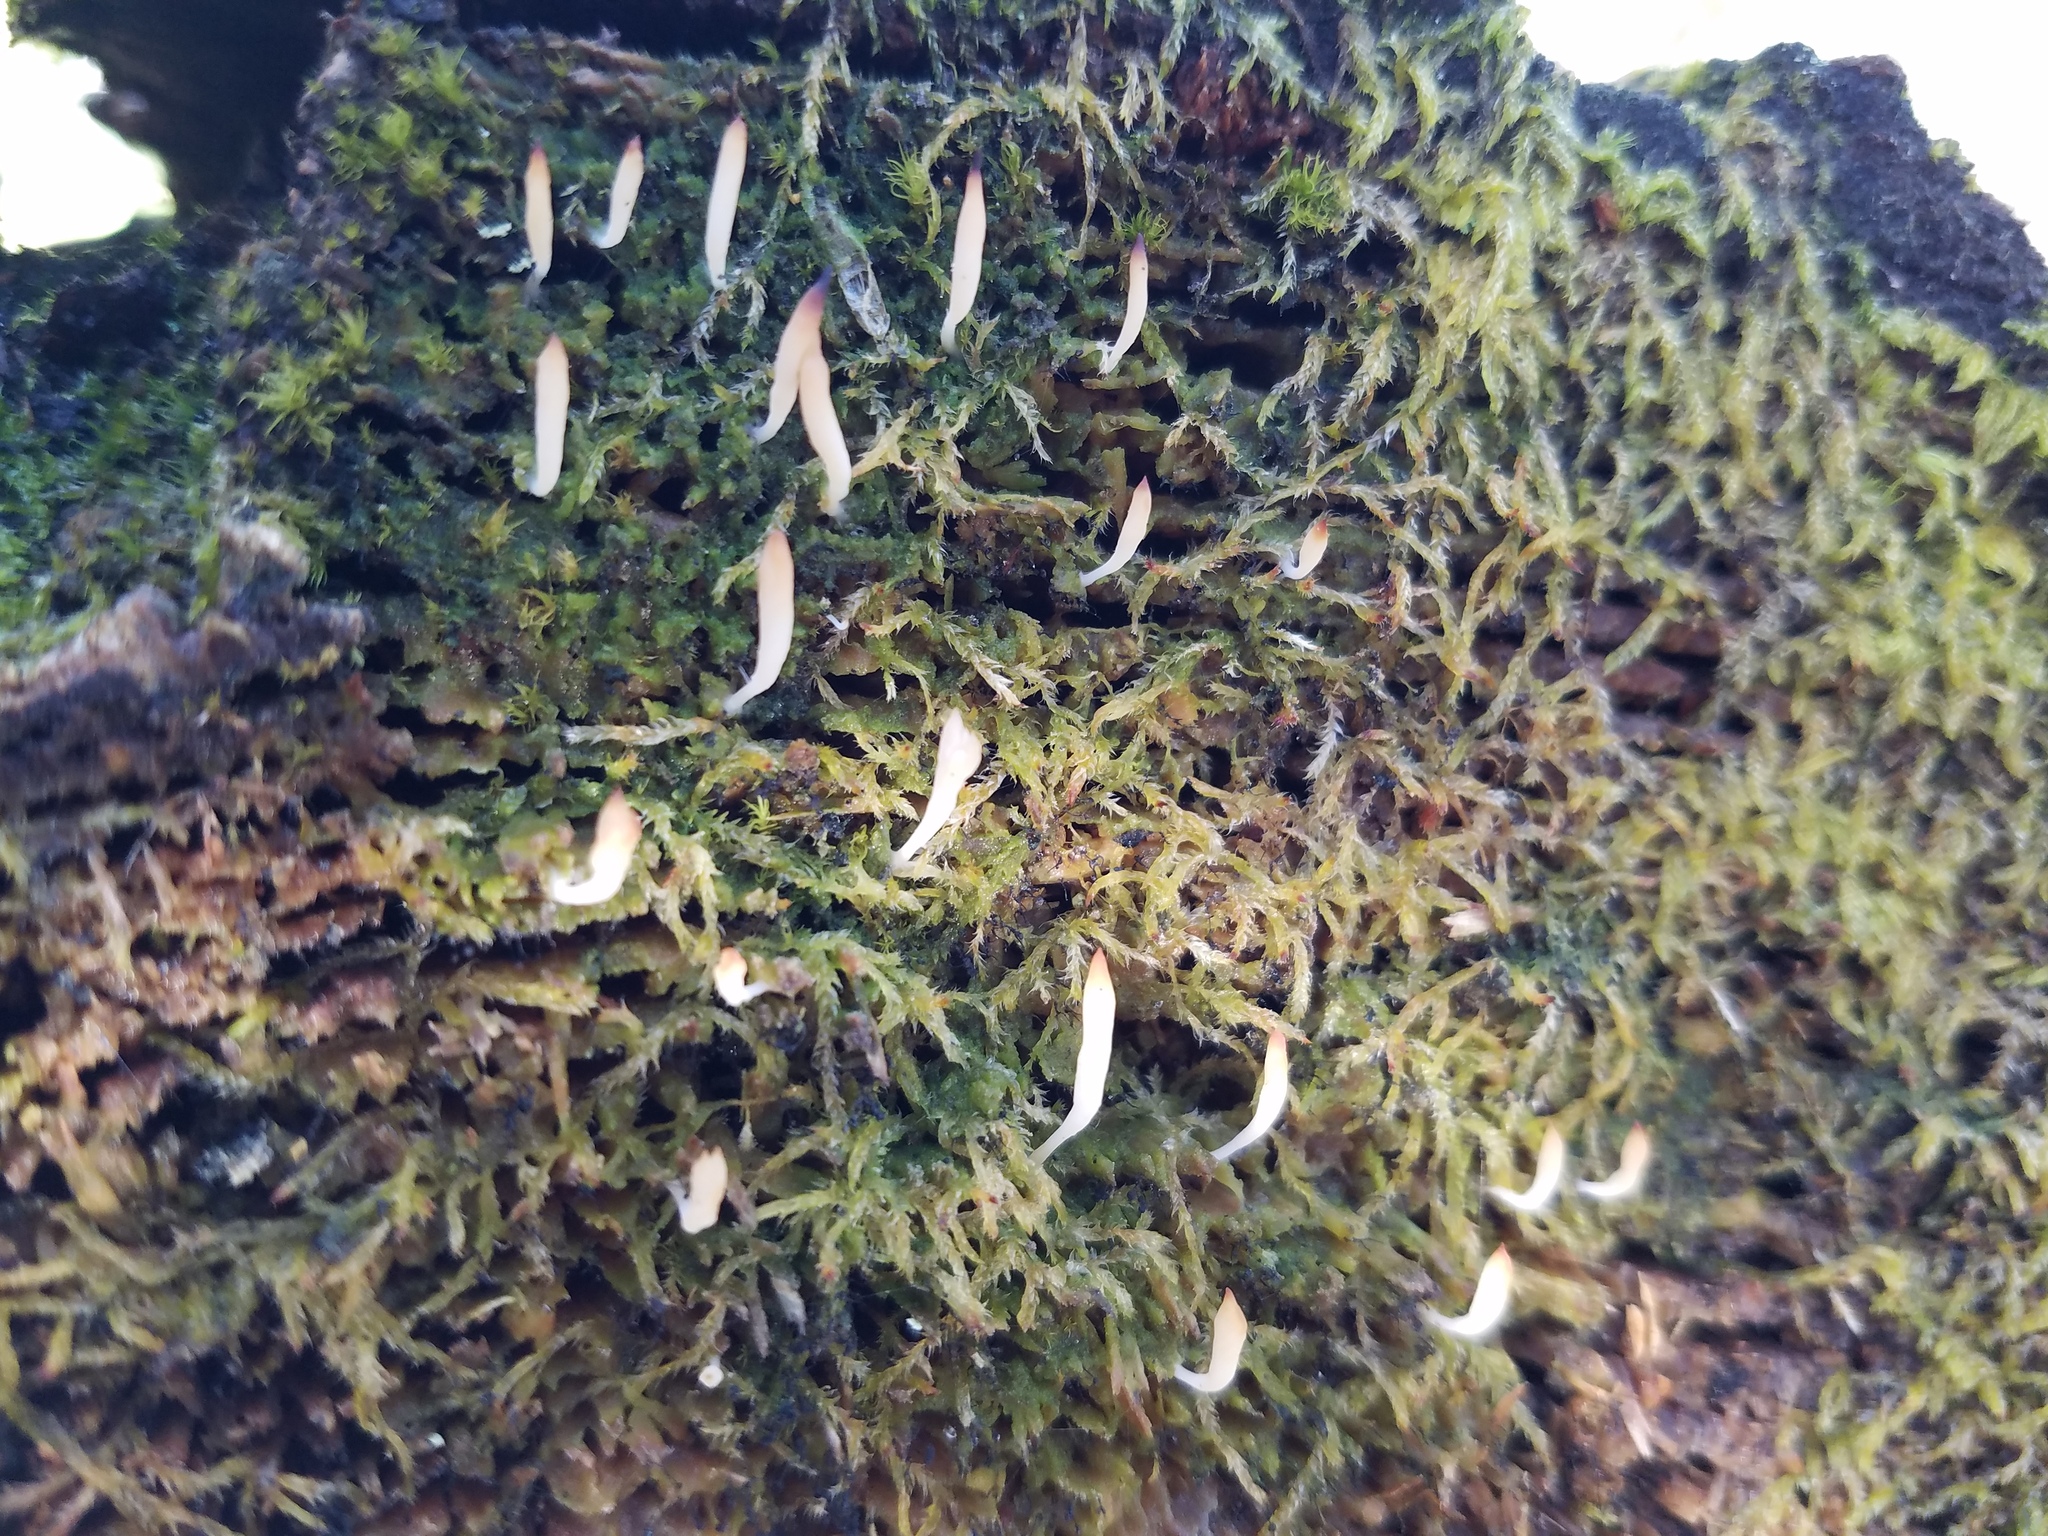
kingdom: Fungi
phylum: Basidiomycota
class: Agaricomycetes
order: Cantharellales
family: Hydnaceae
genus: Multiclavula
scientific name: Multiclavula mucida
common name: White green-algae coral
